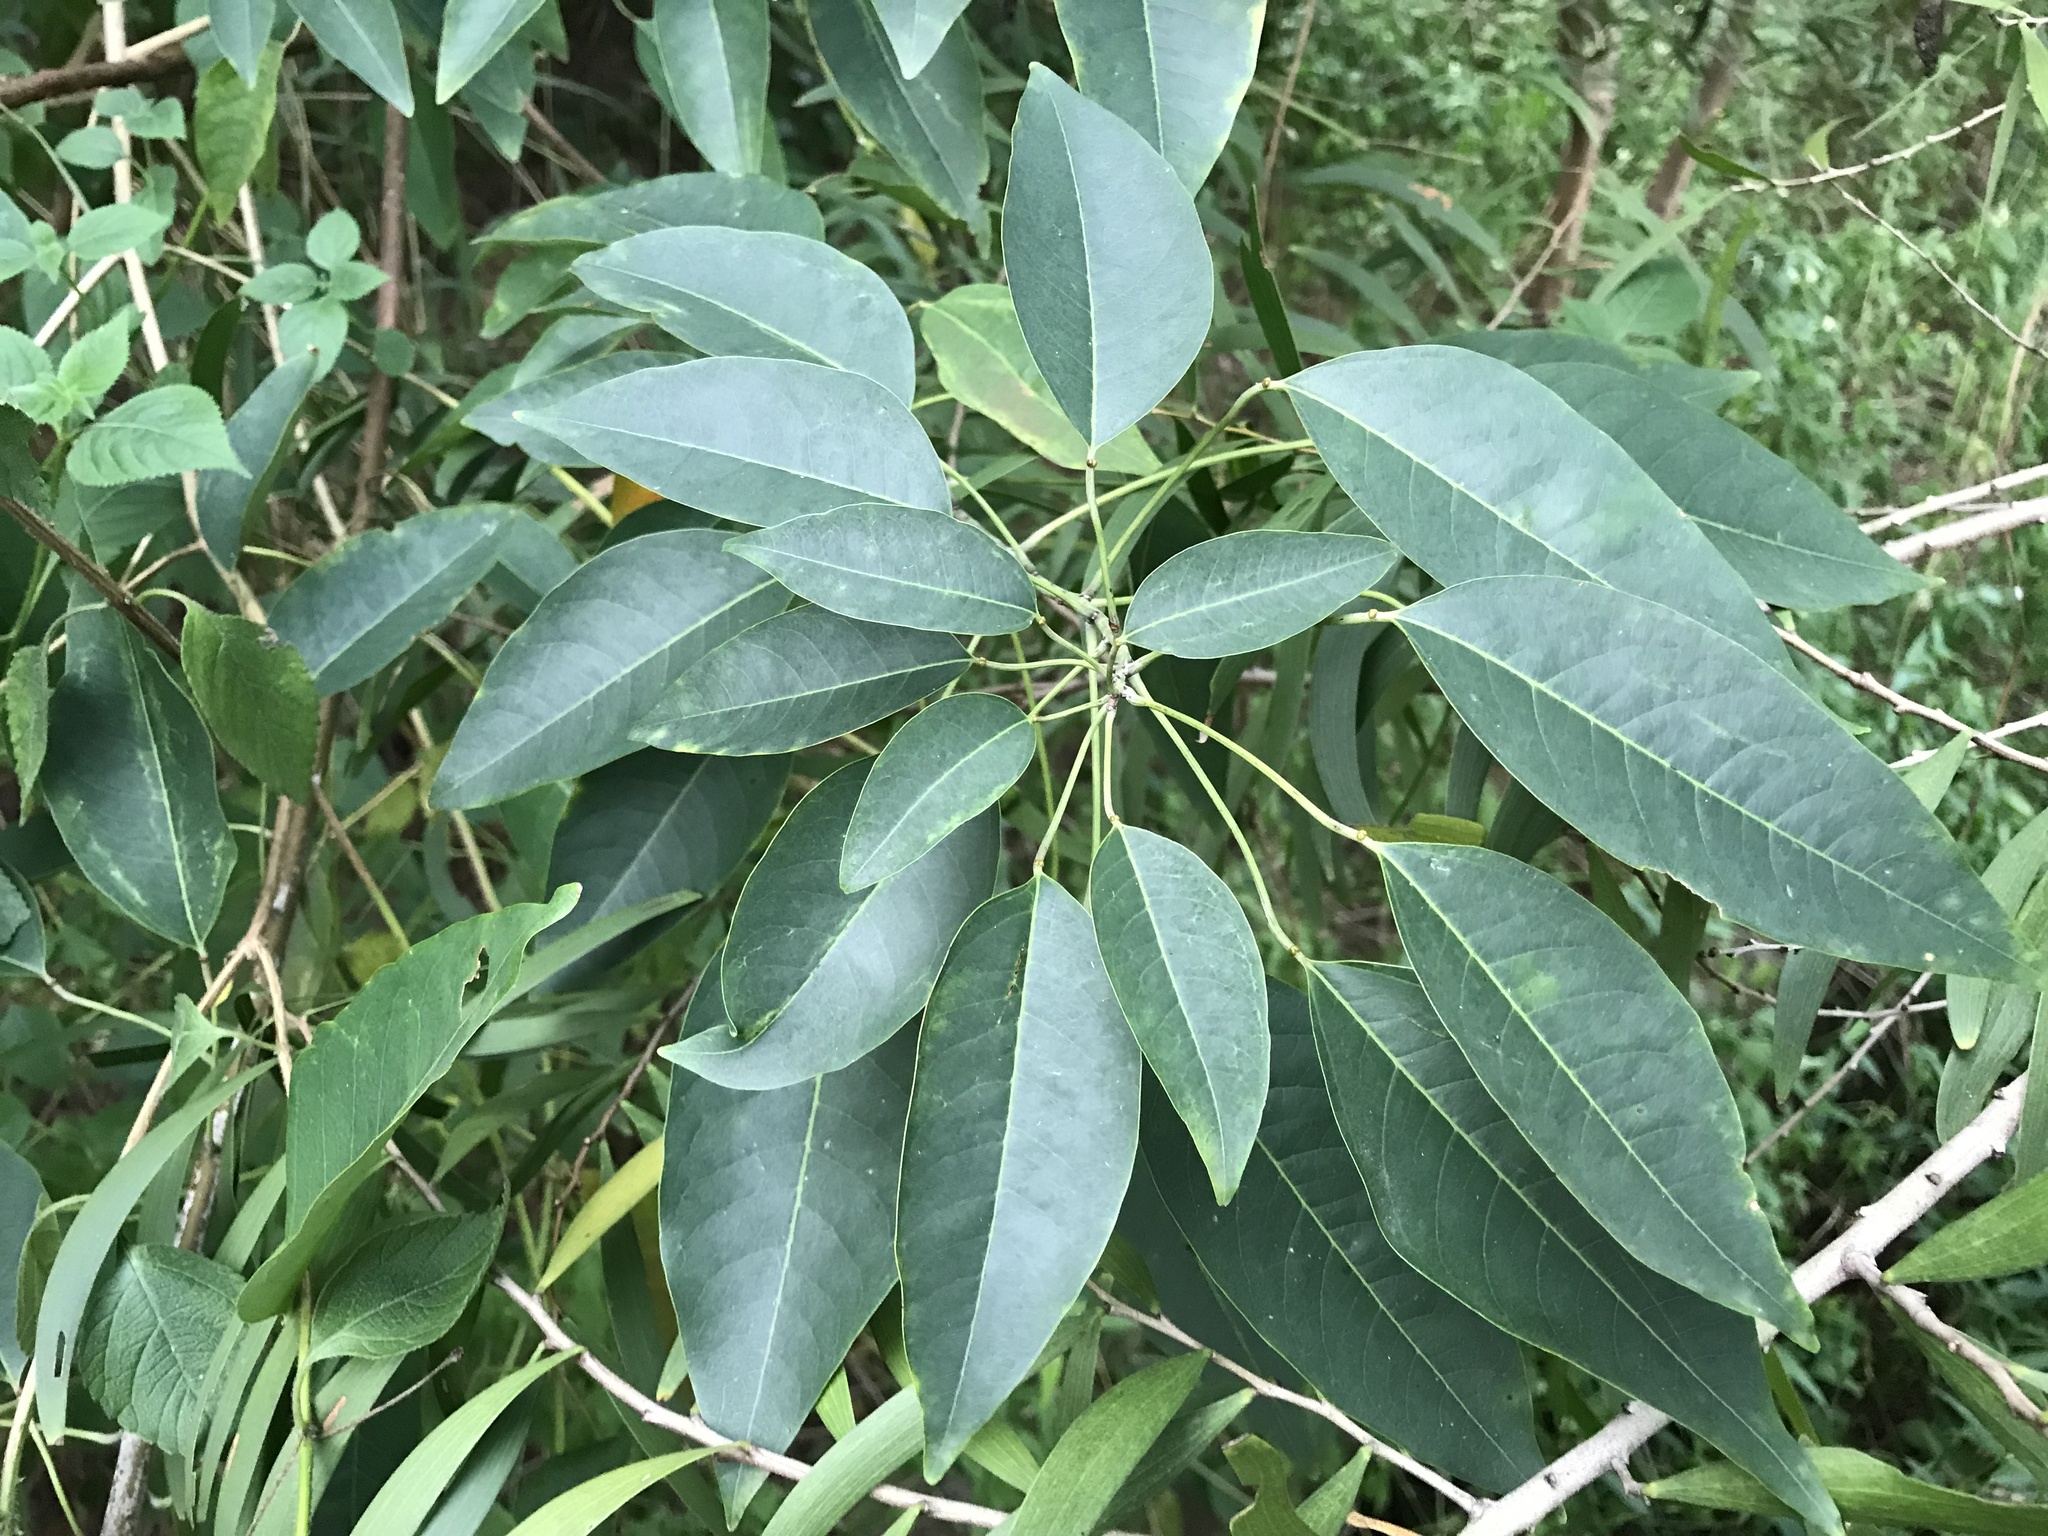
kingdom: Plantae
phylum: Tracheophyta
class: Magnoliopsida
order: Malpighiales
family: Euphorbiaceae
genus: Triadica
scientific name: Triadica cochinchinensis
